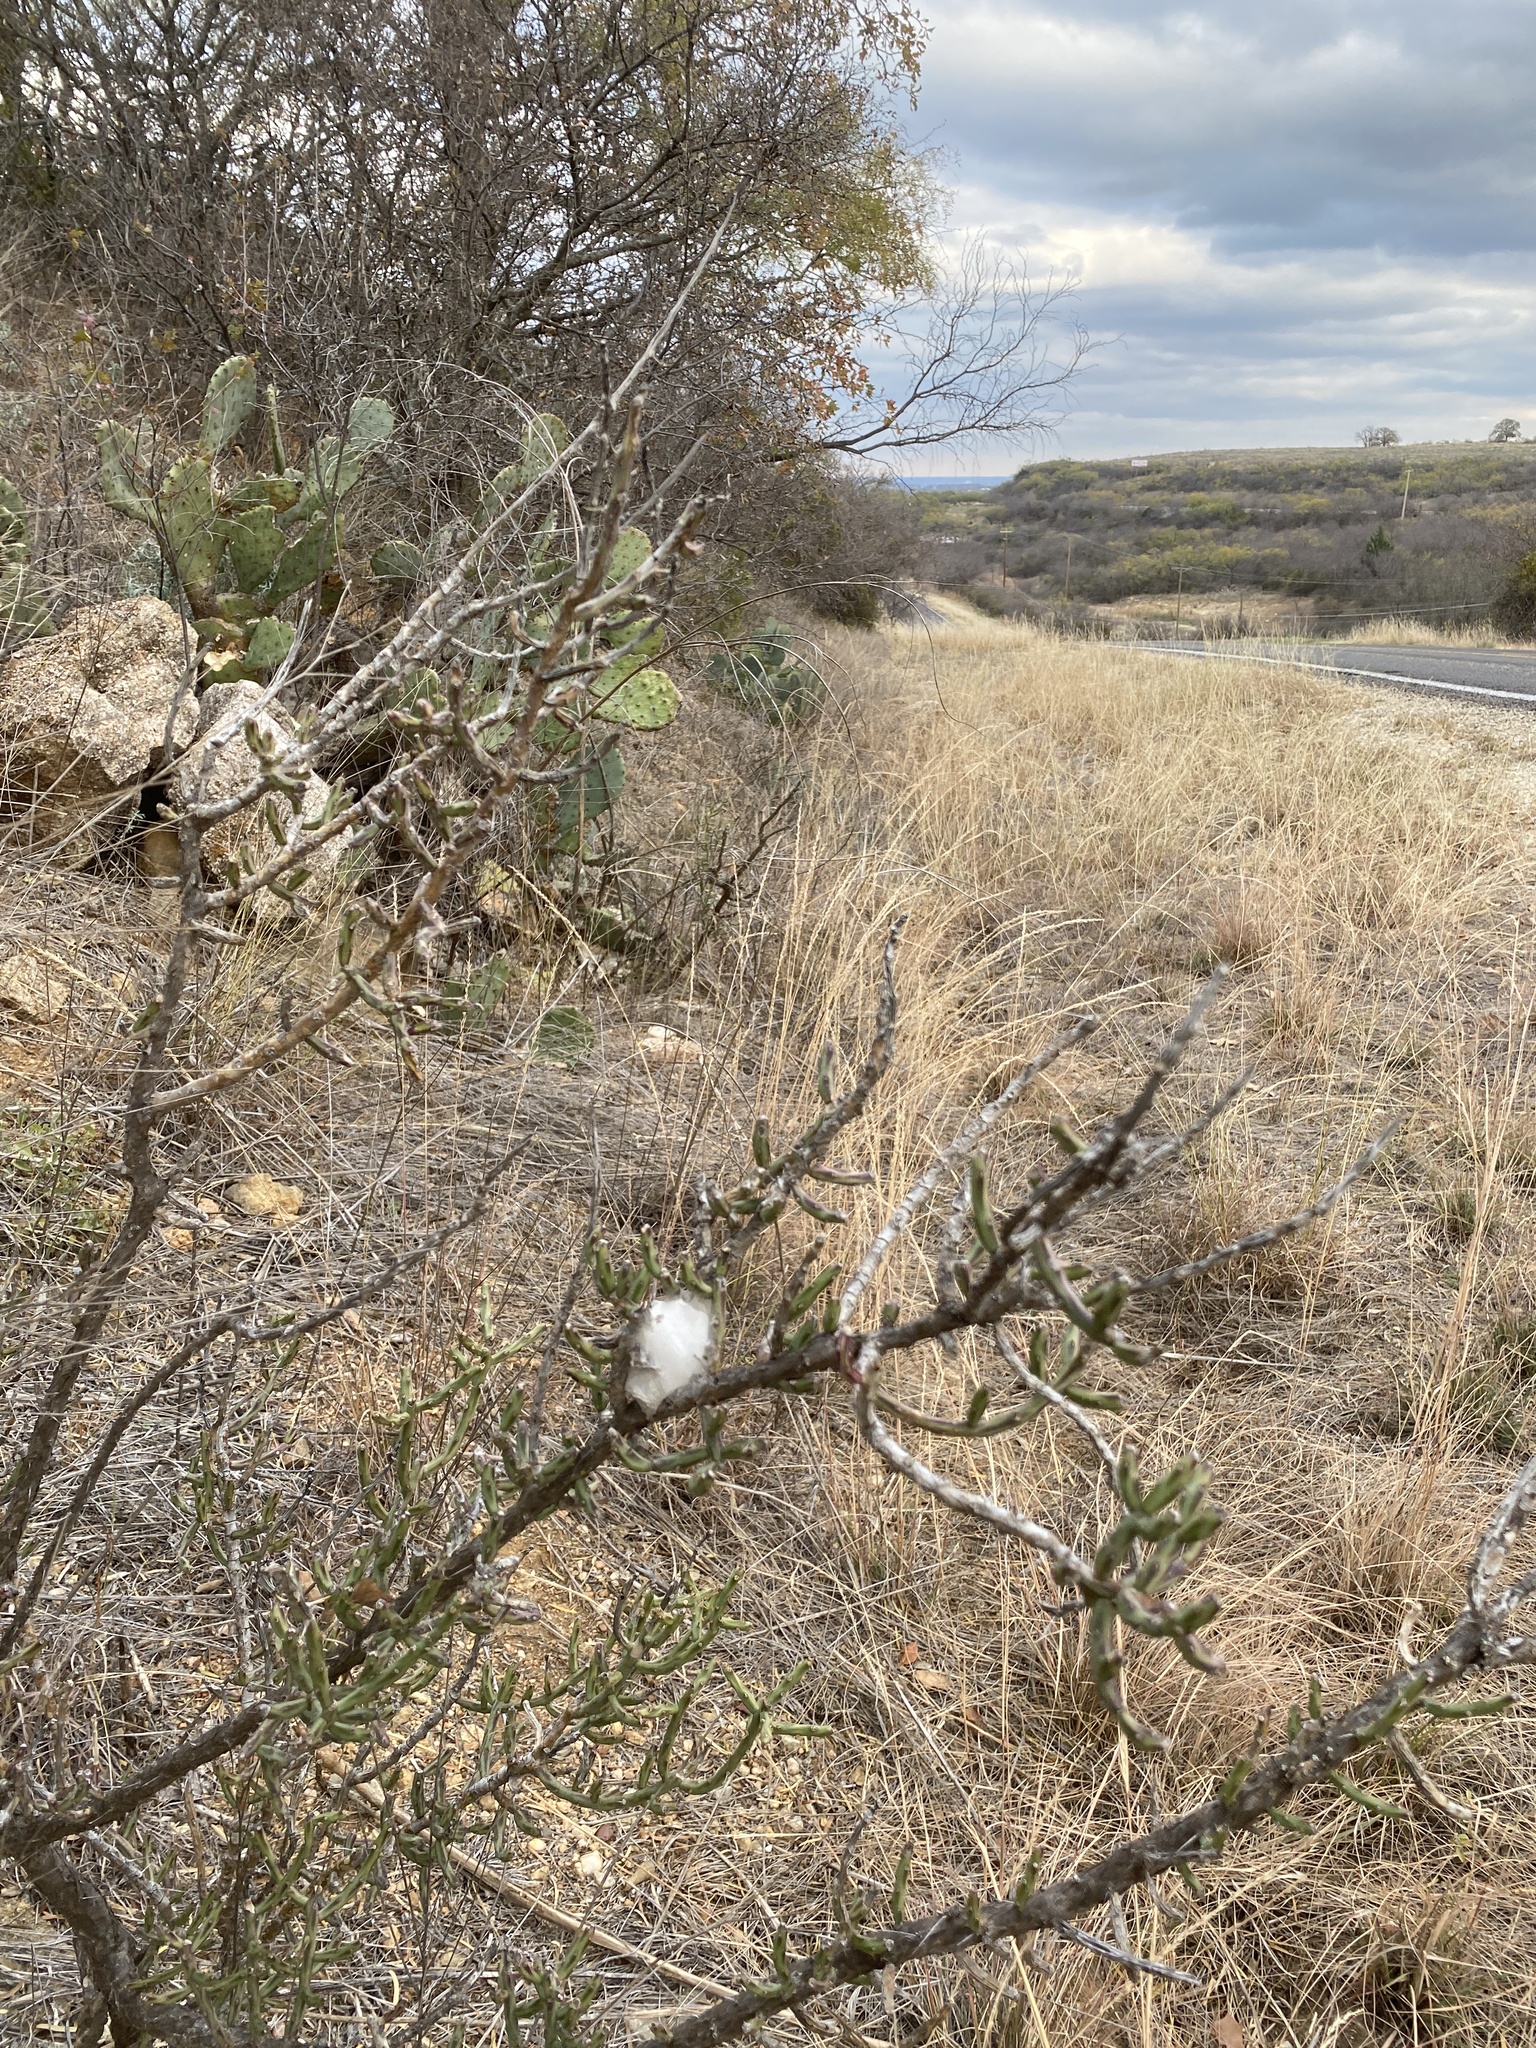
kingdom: Plantae
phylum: Tracheophyta
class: Magnoliopsida
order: Caryophyllales
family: Cactaceae
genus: Cylindropuntia
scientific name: Cylindropuntia leptocaulis
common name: Christmas cactus
